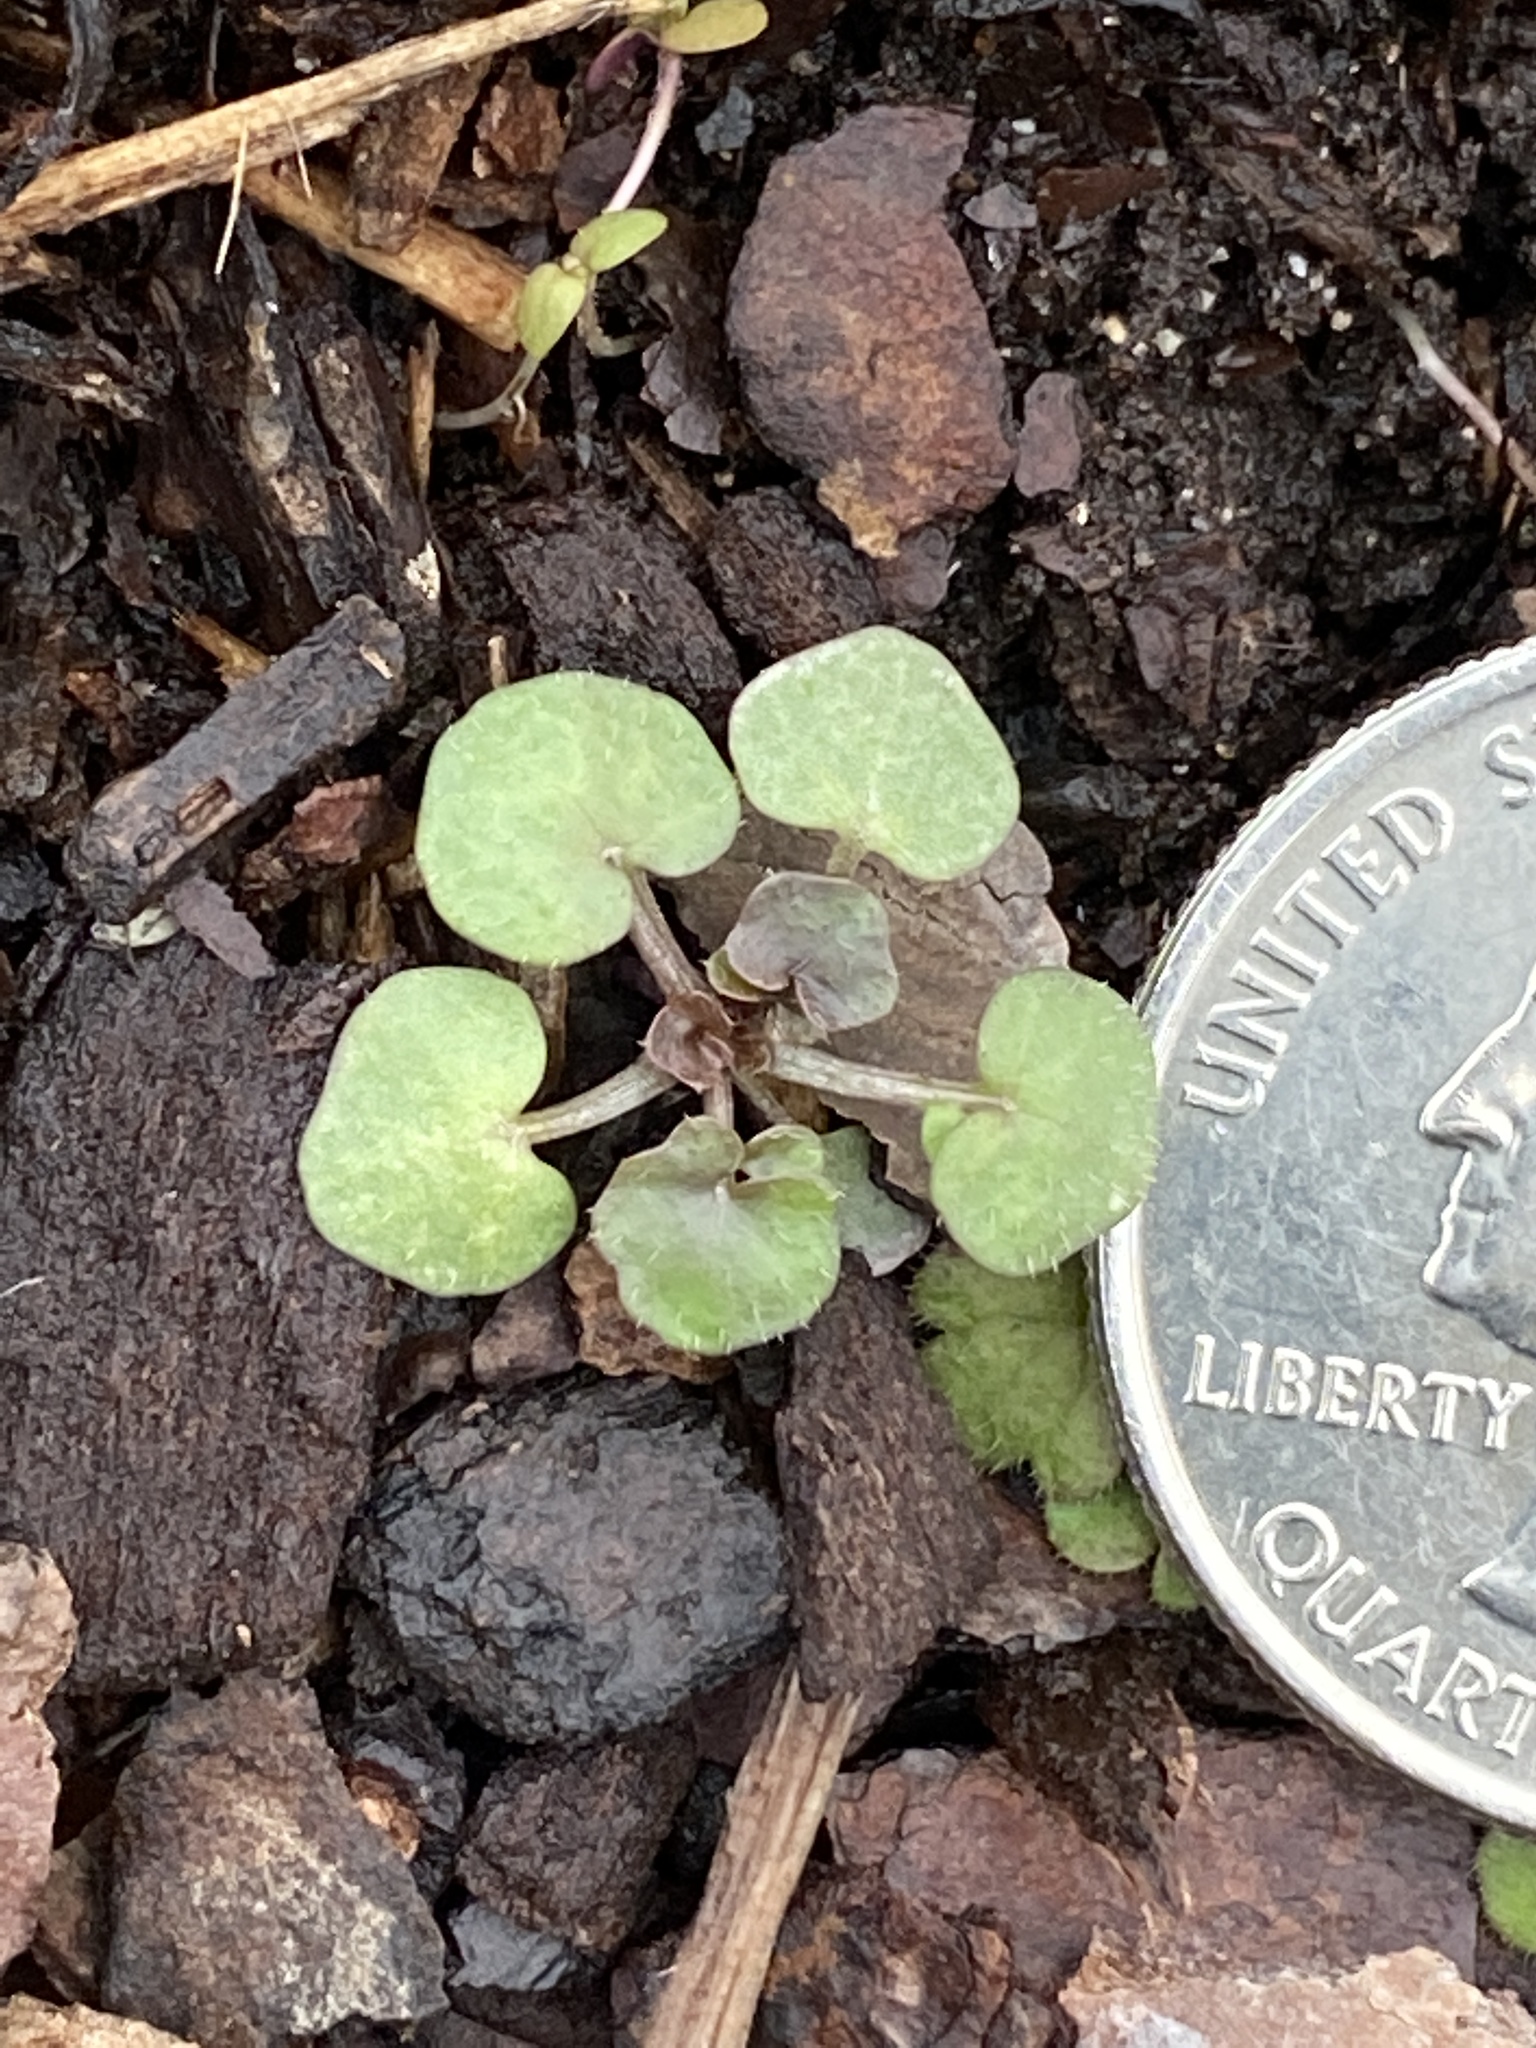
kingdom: Plantae
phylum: Tracheophyta
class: Magnoliopsida
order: Brassicales
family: Brassicaceae
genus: Cardamine
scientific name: Cardamine hirsuta
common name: Hairy bittercress
